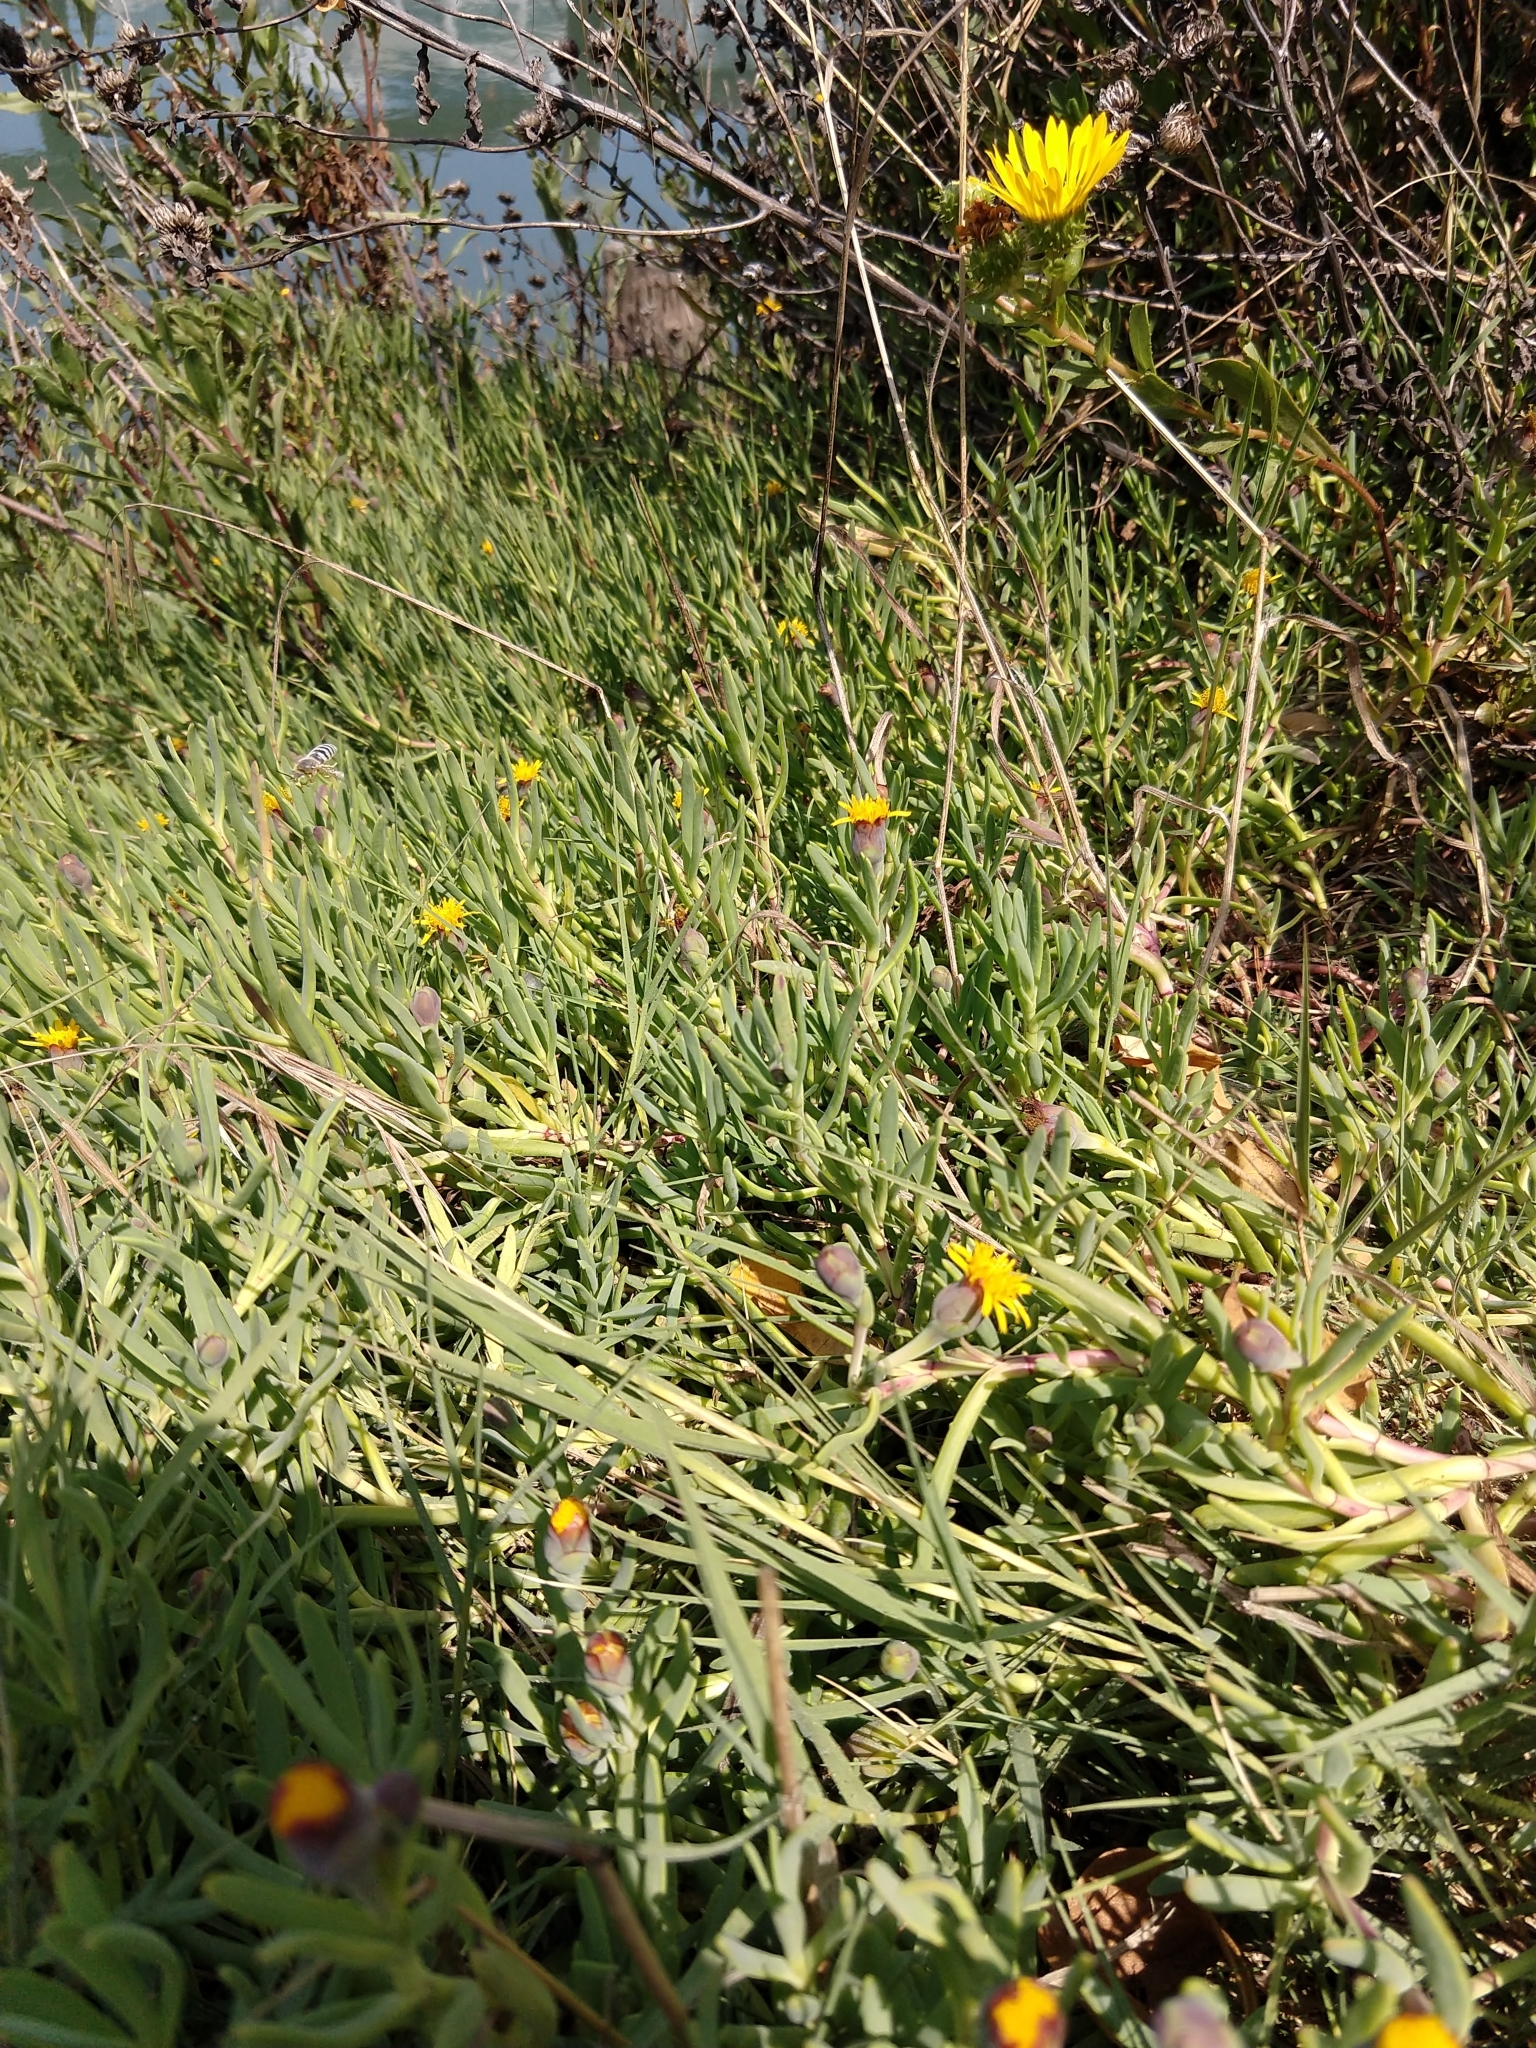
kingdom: Plantae
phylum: Tracheophyta
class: Magnoliopsida
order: Asterales
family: Asteraceae
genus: Jaumea
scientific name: Jaumea carnosa
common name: Fleshy jaumea
